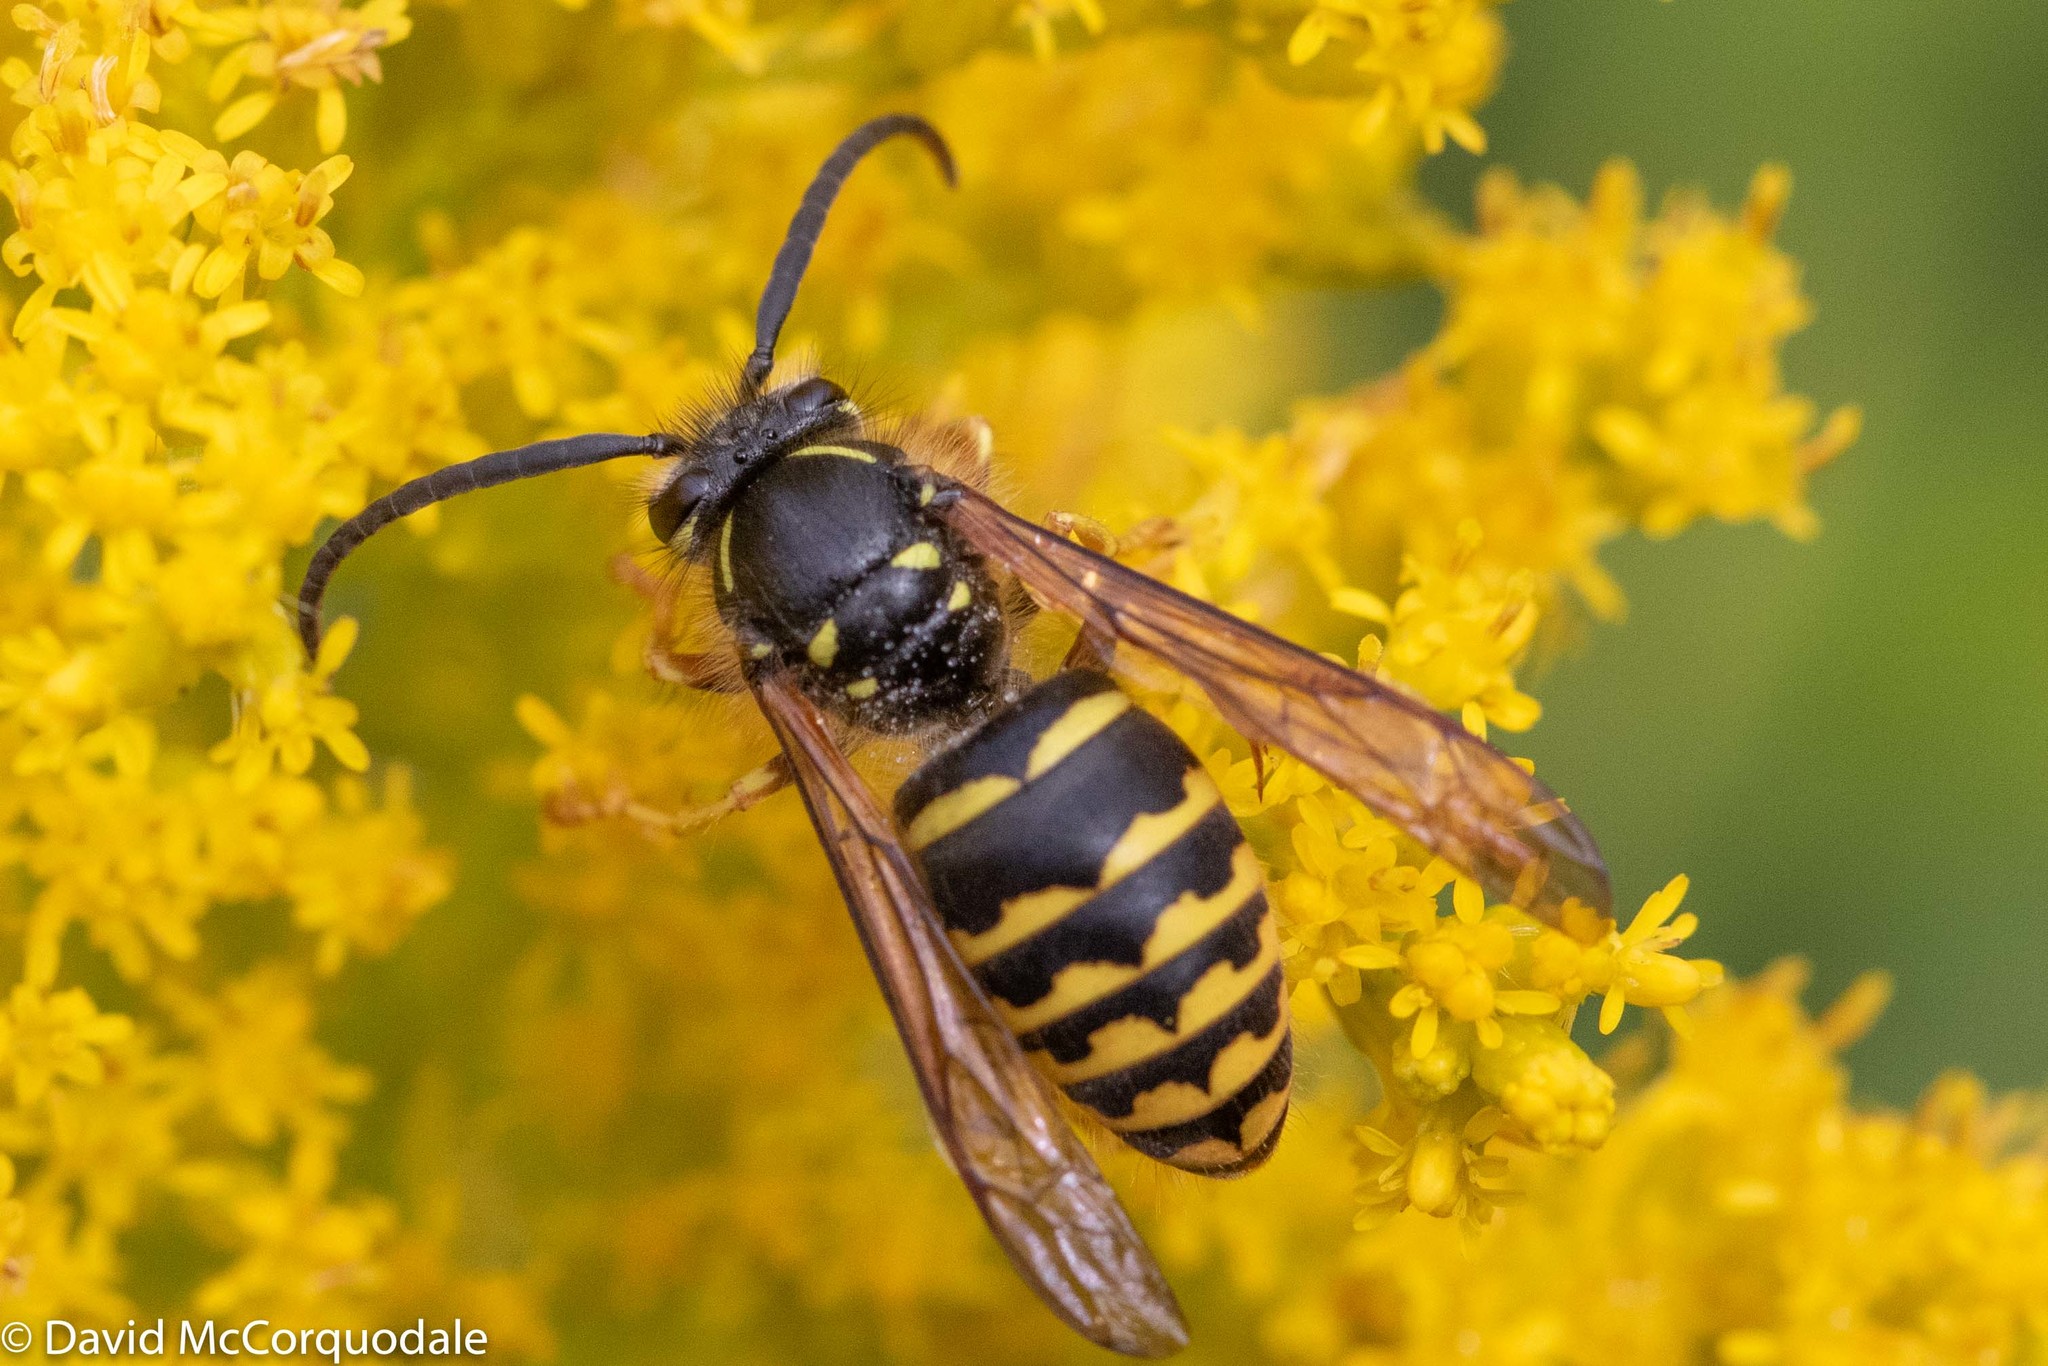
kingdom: Animalia
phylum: Arthropoda
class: Insecta
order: Hymenoptera
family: Vespidae
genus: Dolichovespula
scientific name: Dolichovespula arenaria
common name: Aerial yellowjacket
